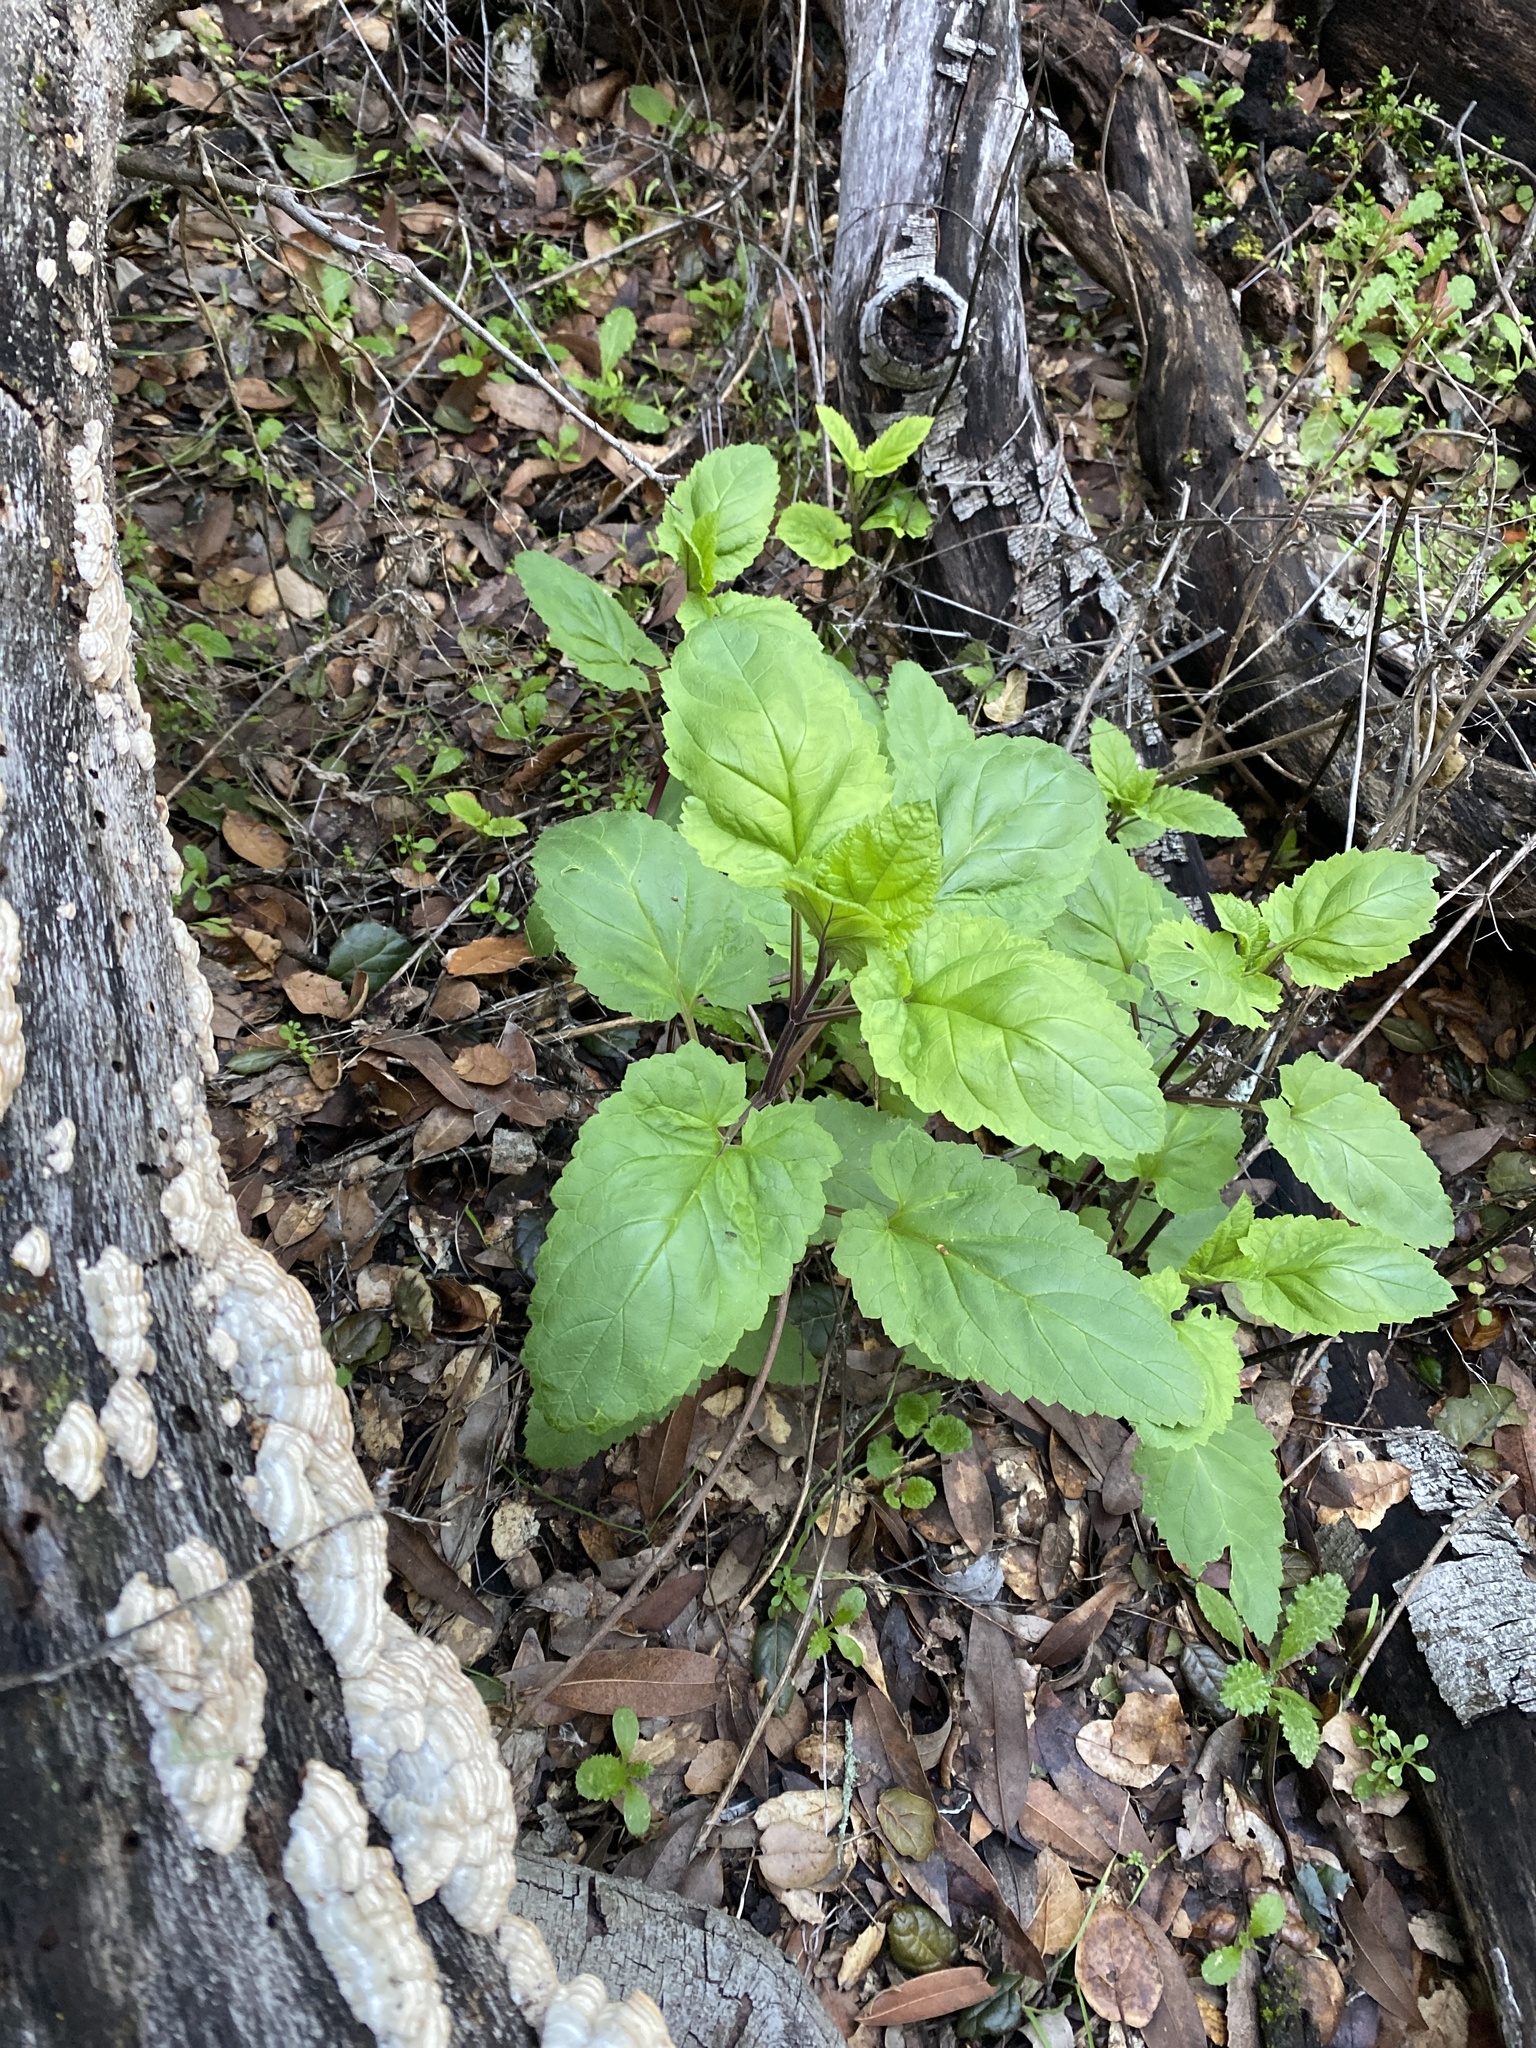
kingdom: Plantae
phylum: Tracheophyta
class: Magnoliopsida
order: Lamiales
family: Scrophulariaceae
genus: Scrophularia
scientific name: Scrophularia californica
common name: California figwort
